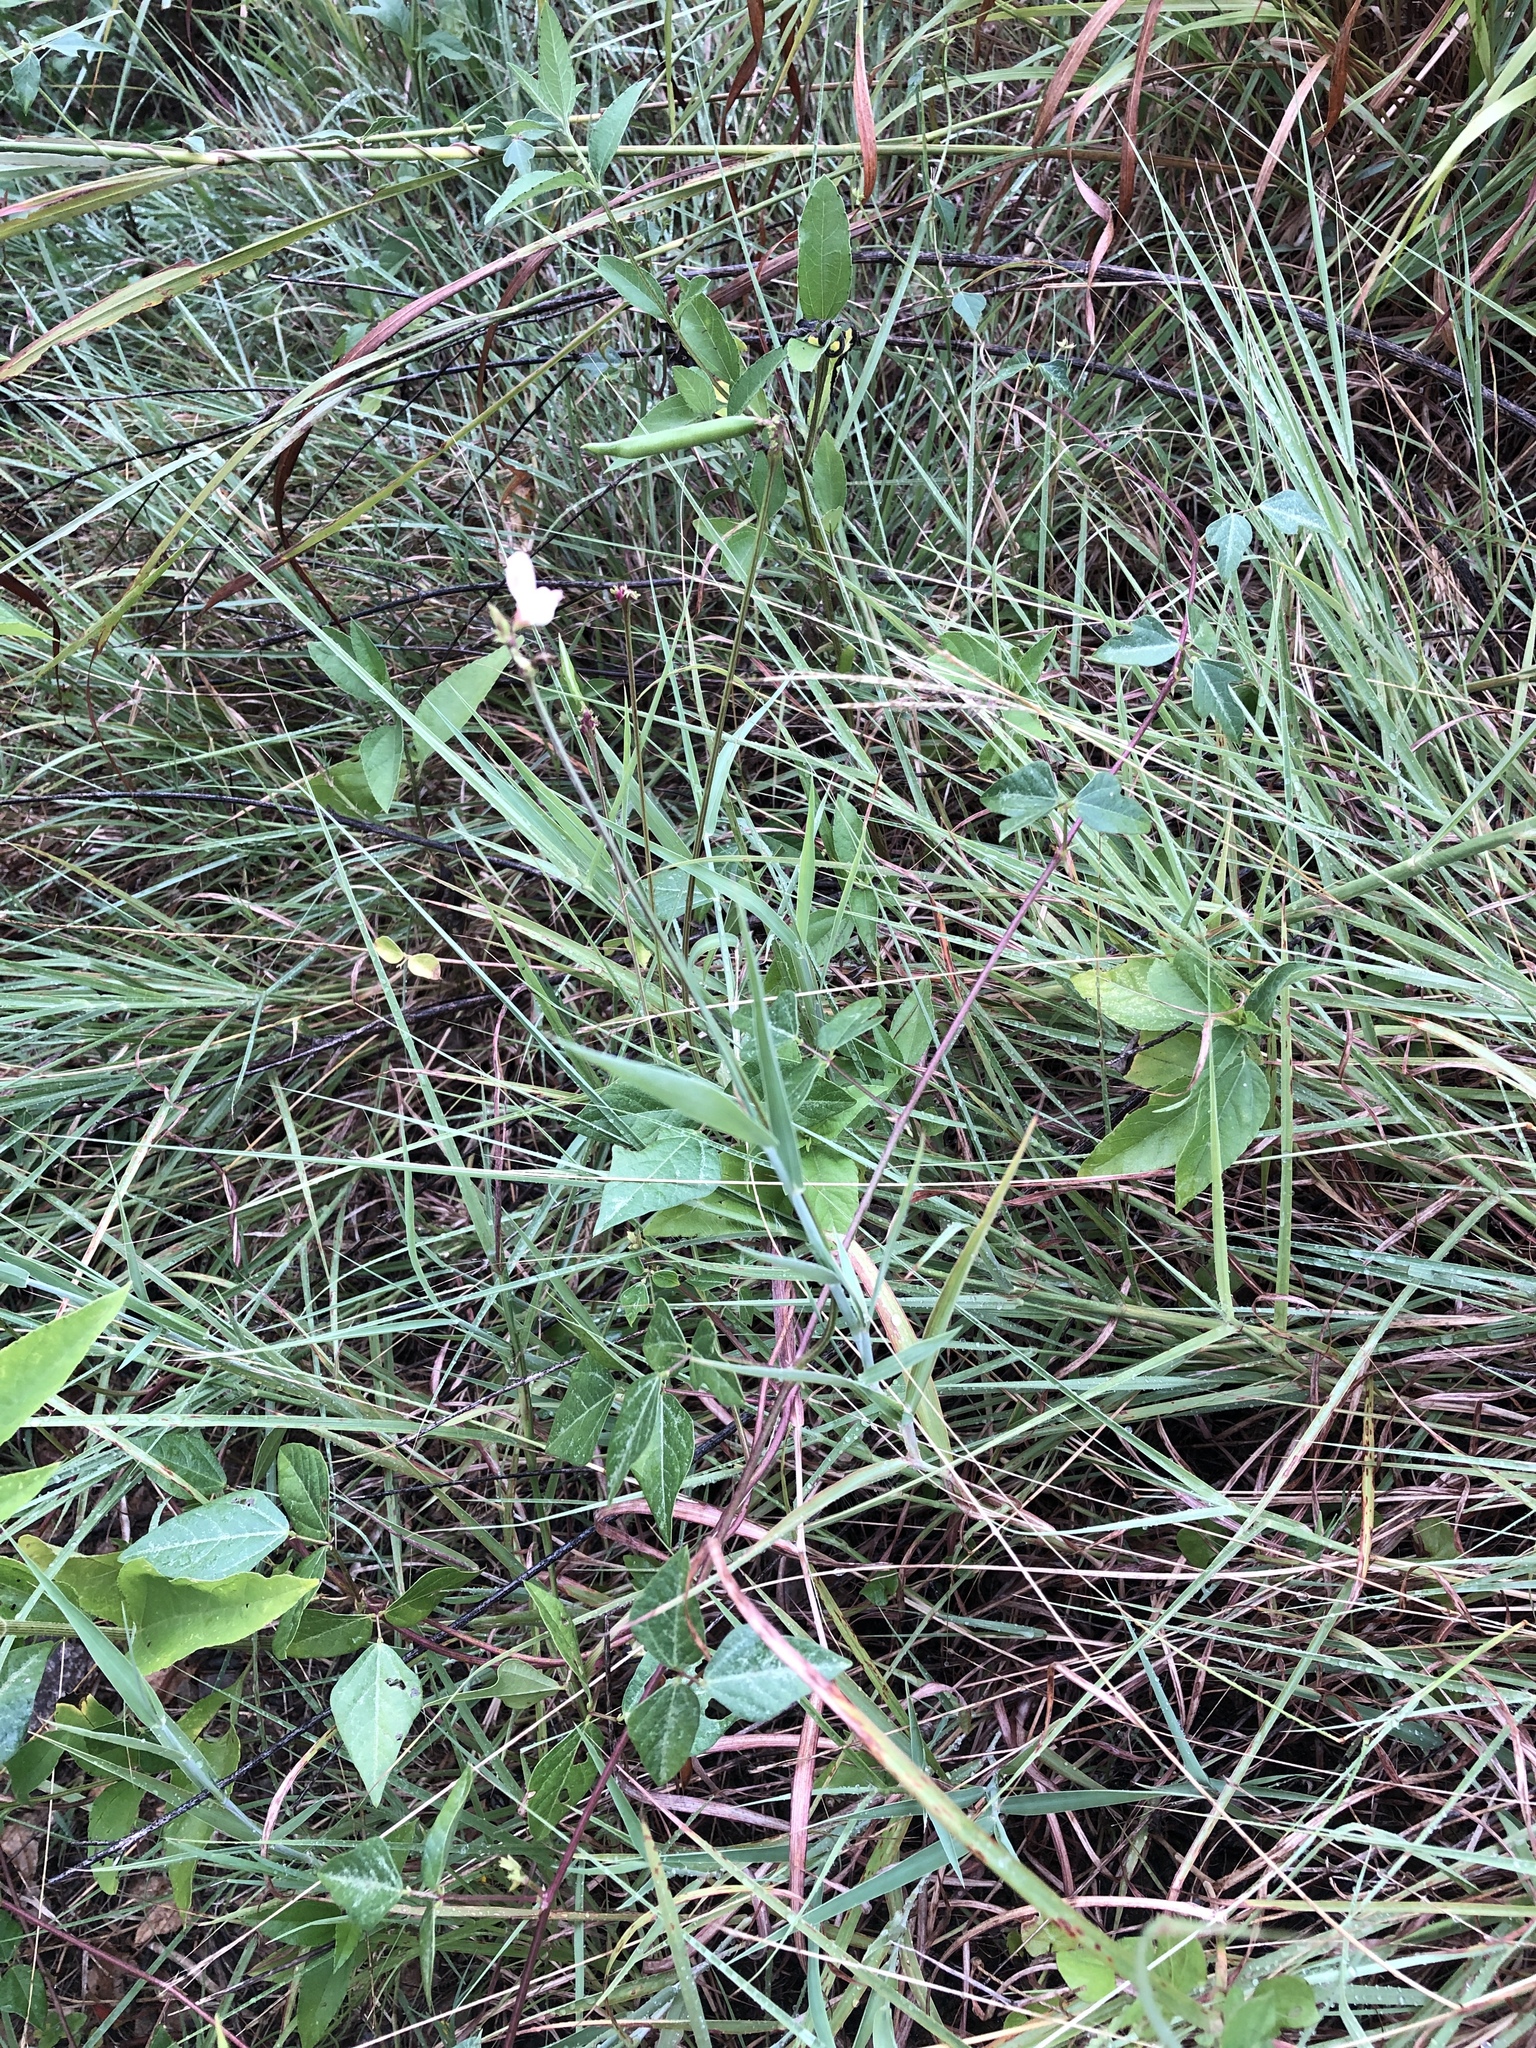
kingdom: Plantae
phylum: Tracheophyta
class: Magnoliopsida
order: Fabales
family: Fabaceae
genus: Strophostyles
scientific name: Strophostyles helvola
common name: Trailing wild bean
